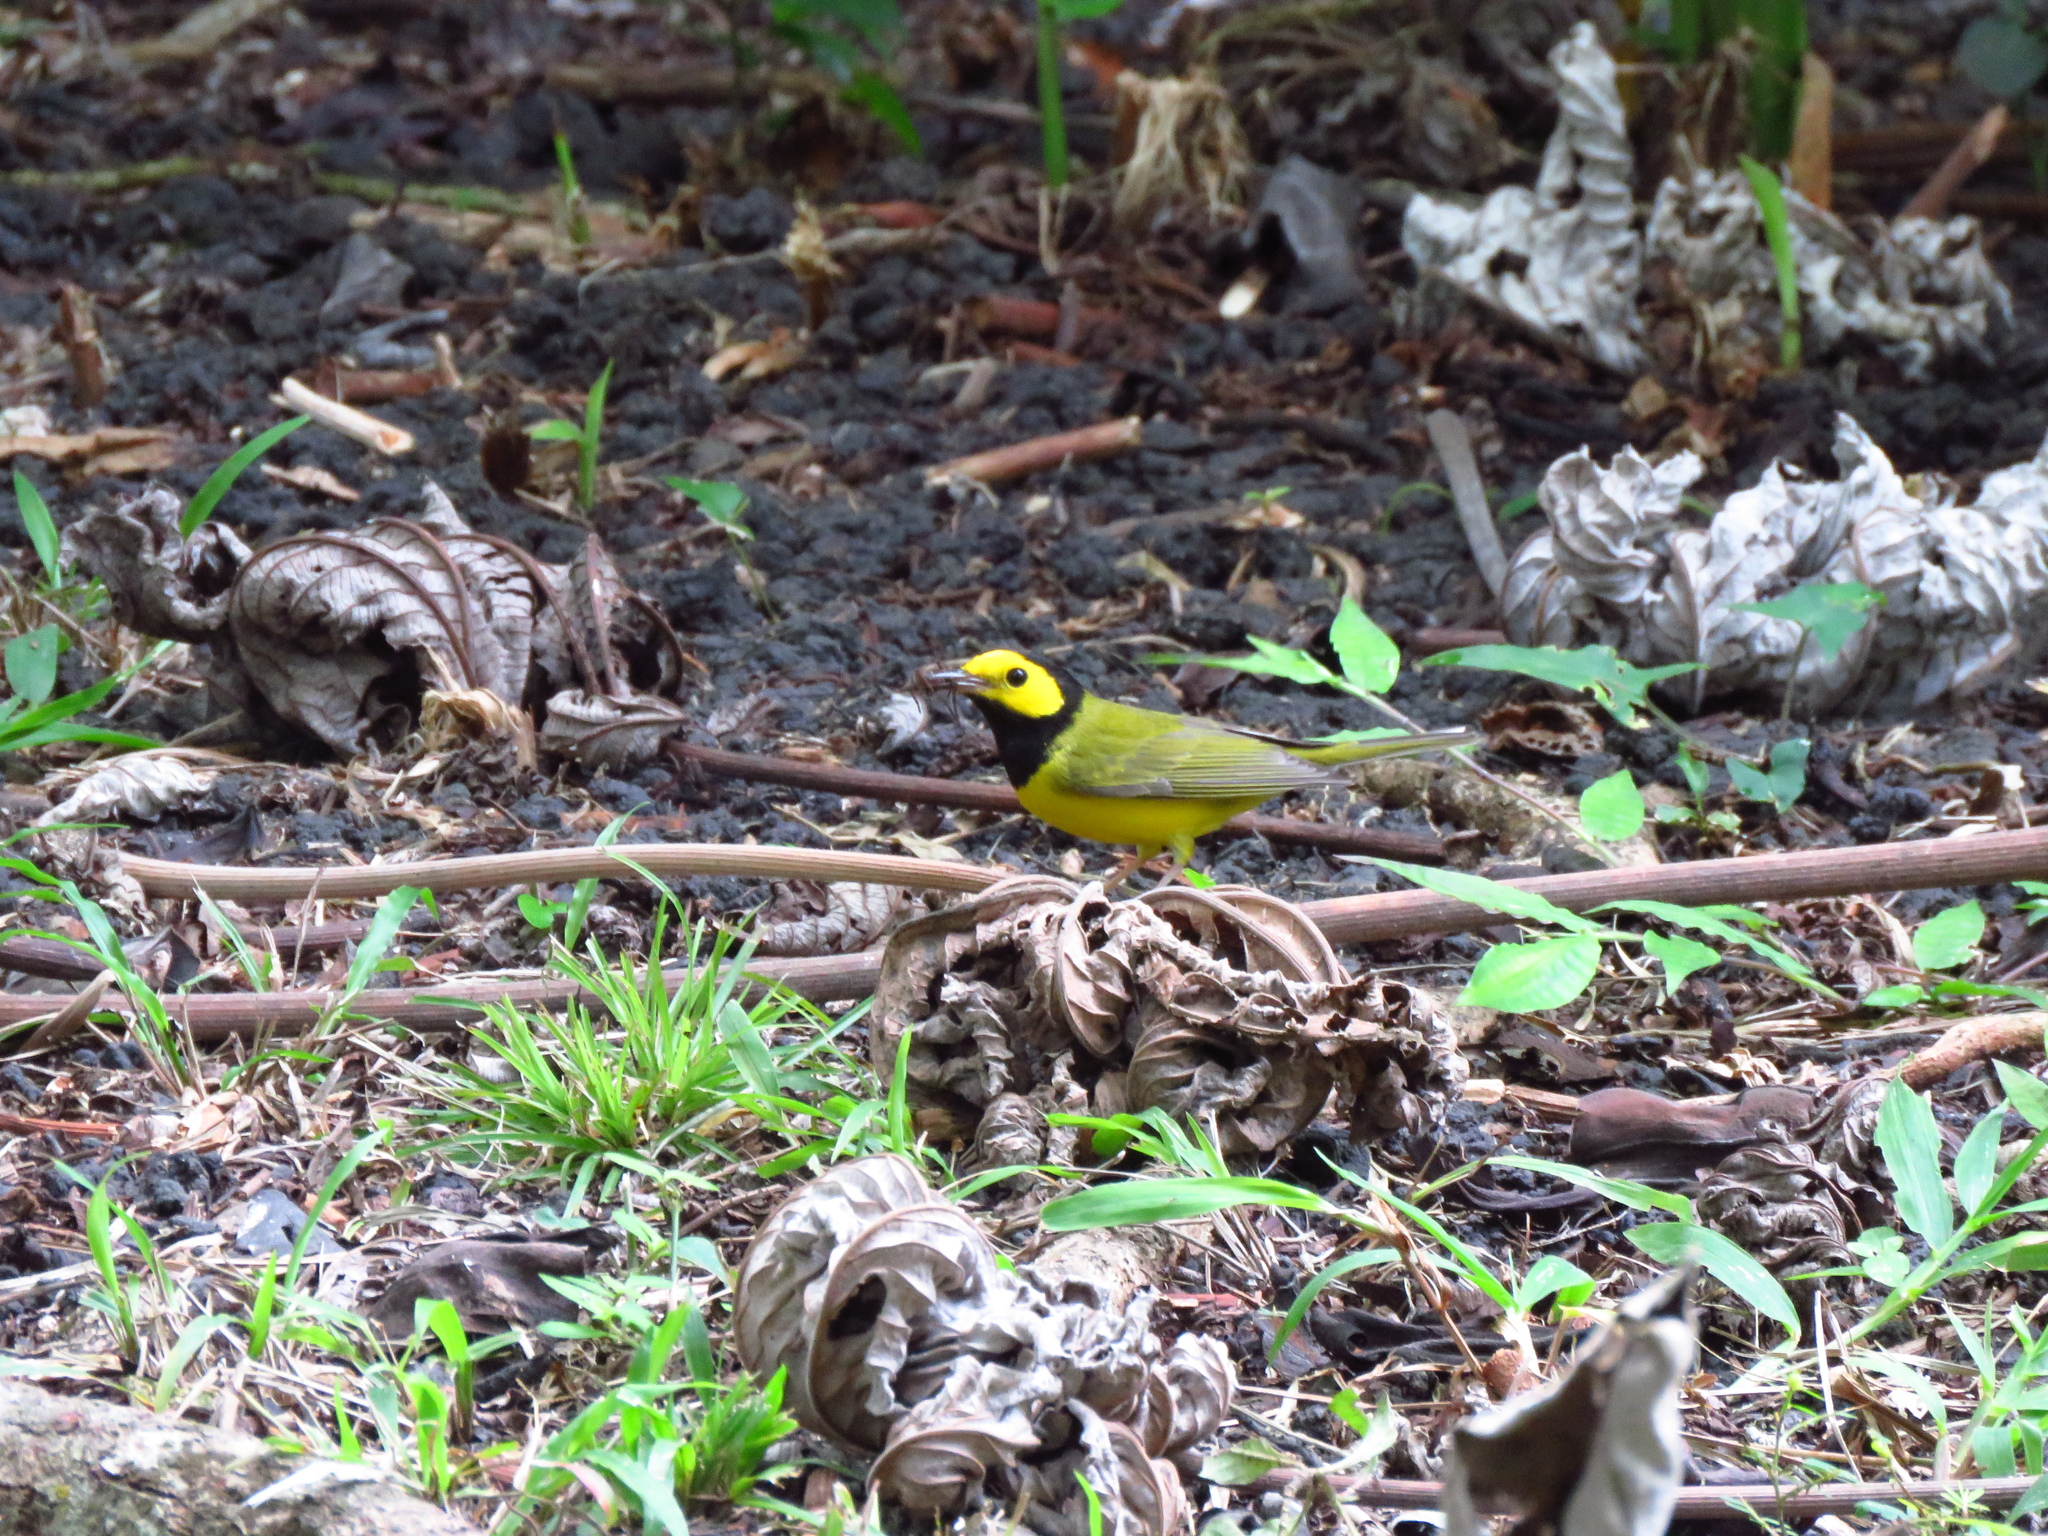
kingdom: Animalia
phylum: Chordata
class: Aves
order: Passeriformes
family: Parulidae
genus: Setophaga
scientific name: Setophaga citrina
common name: Hooded warbler
